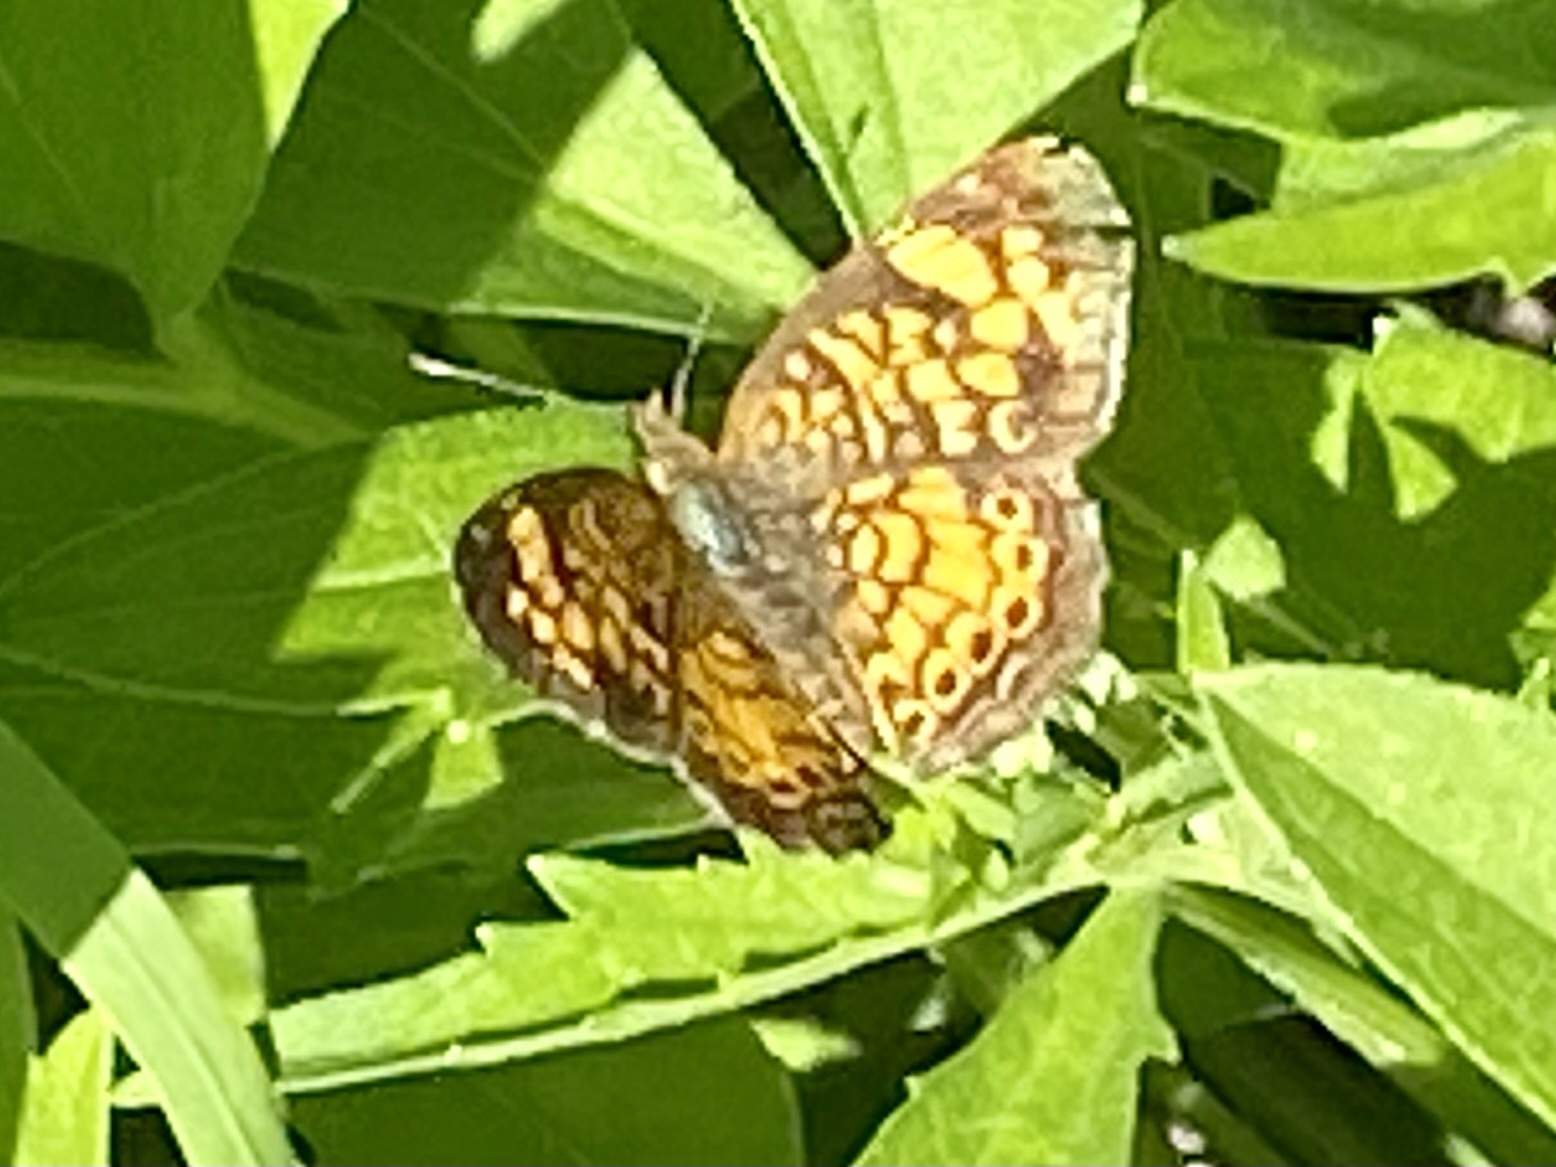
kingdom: Animalia
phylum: Arthropoda
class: Insecta
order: Lepidoptera
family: Nymphalidae
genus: Phyciodes
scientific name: Phyciodes tharos
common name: Pearl crescent
